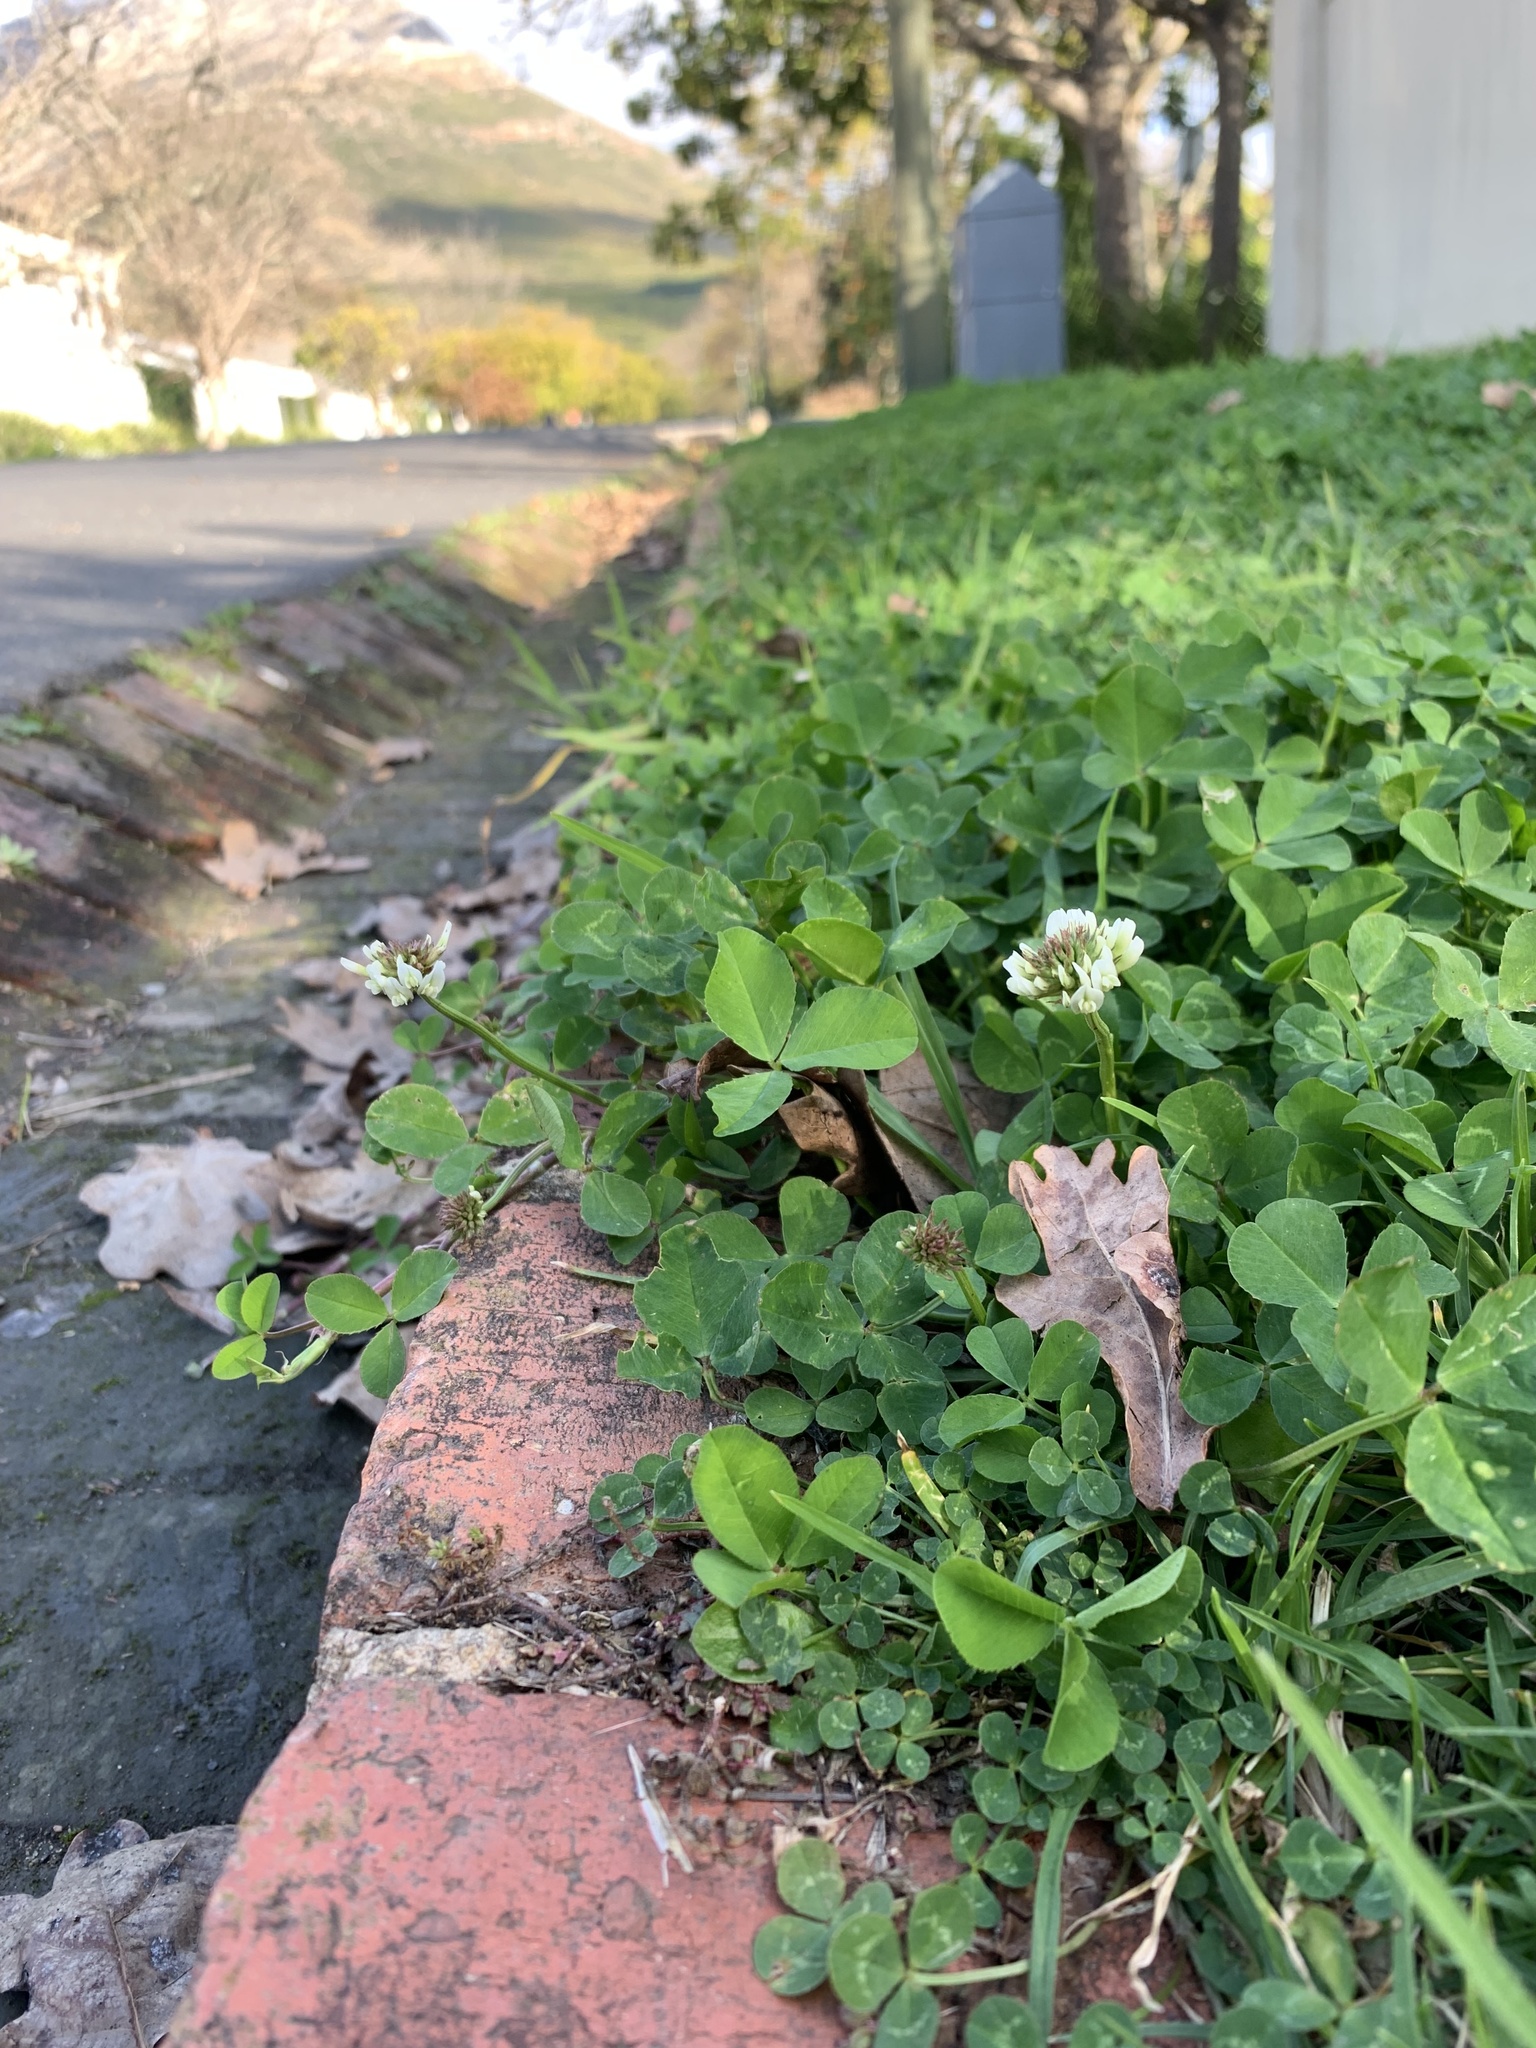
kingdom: Plantae
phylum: Tracheophyta
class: Magnoliopsida
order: Fabales
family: Fabaceae
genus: Trifolium
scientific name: Trifolium repens
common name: White clover
